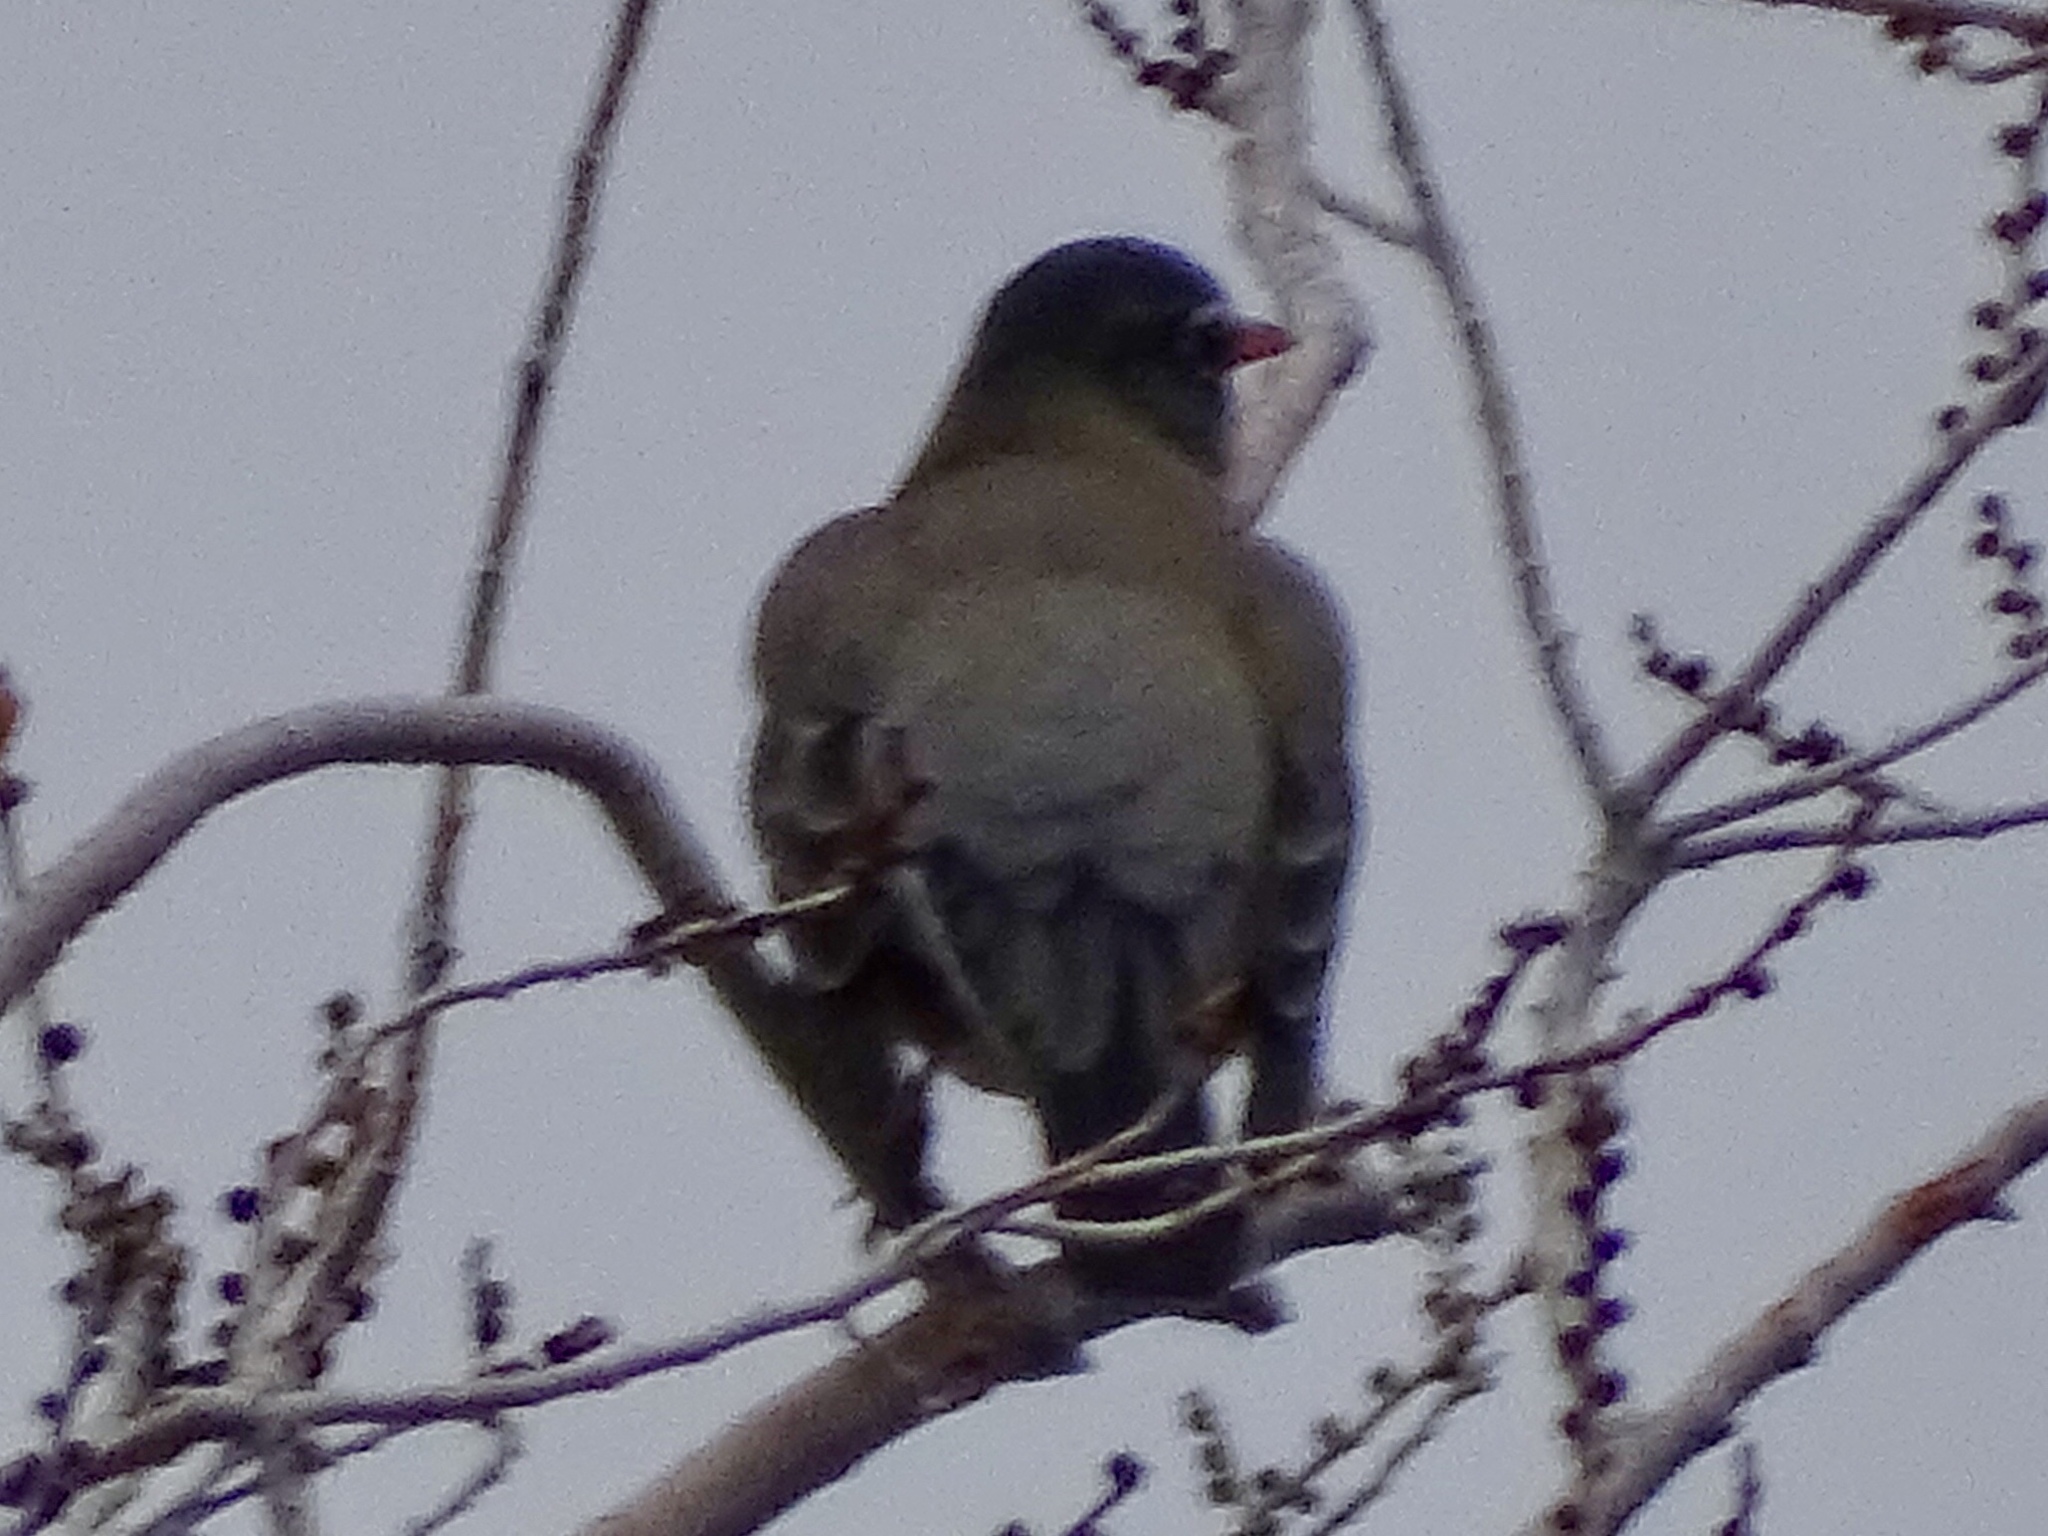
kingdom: Animalia
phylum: Chordata
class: Aves
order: Passeriformes
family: Turdidae
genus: Turdus
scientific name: Turdus migratorius
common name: American robin
